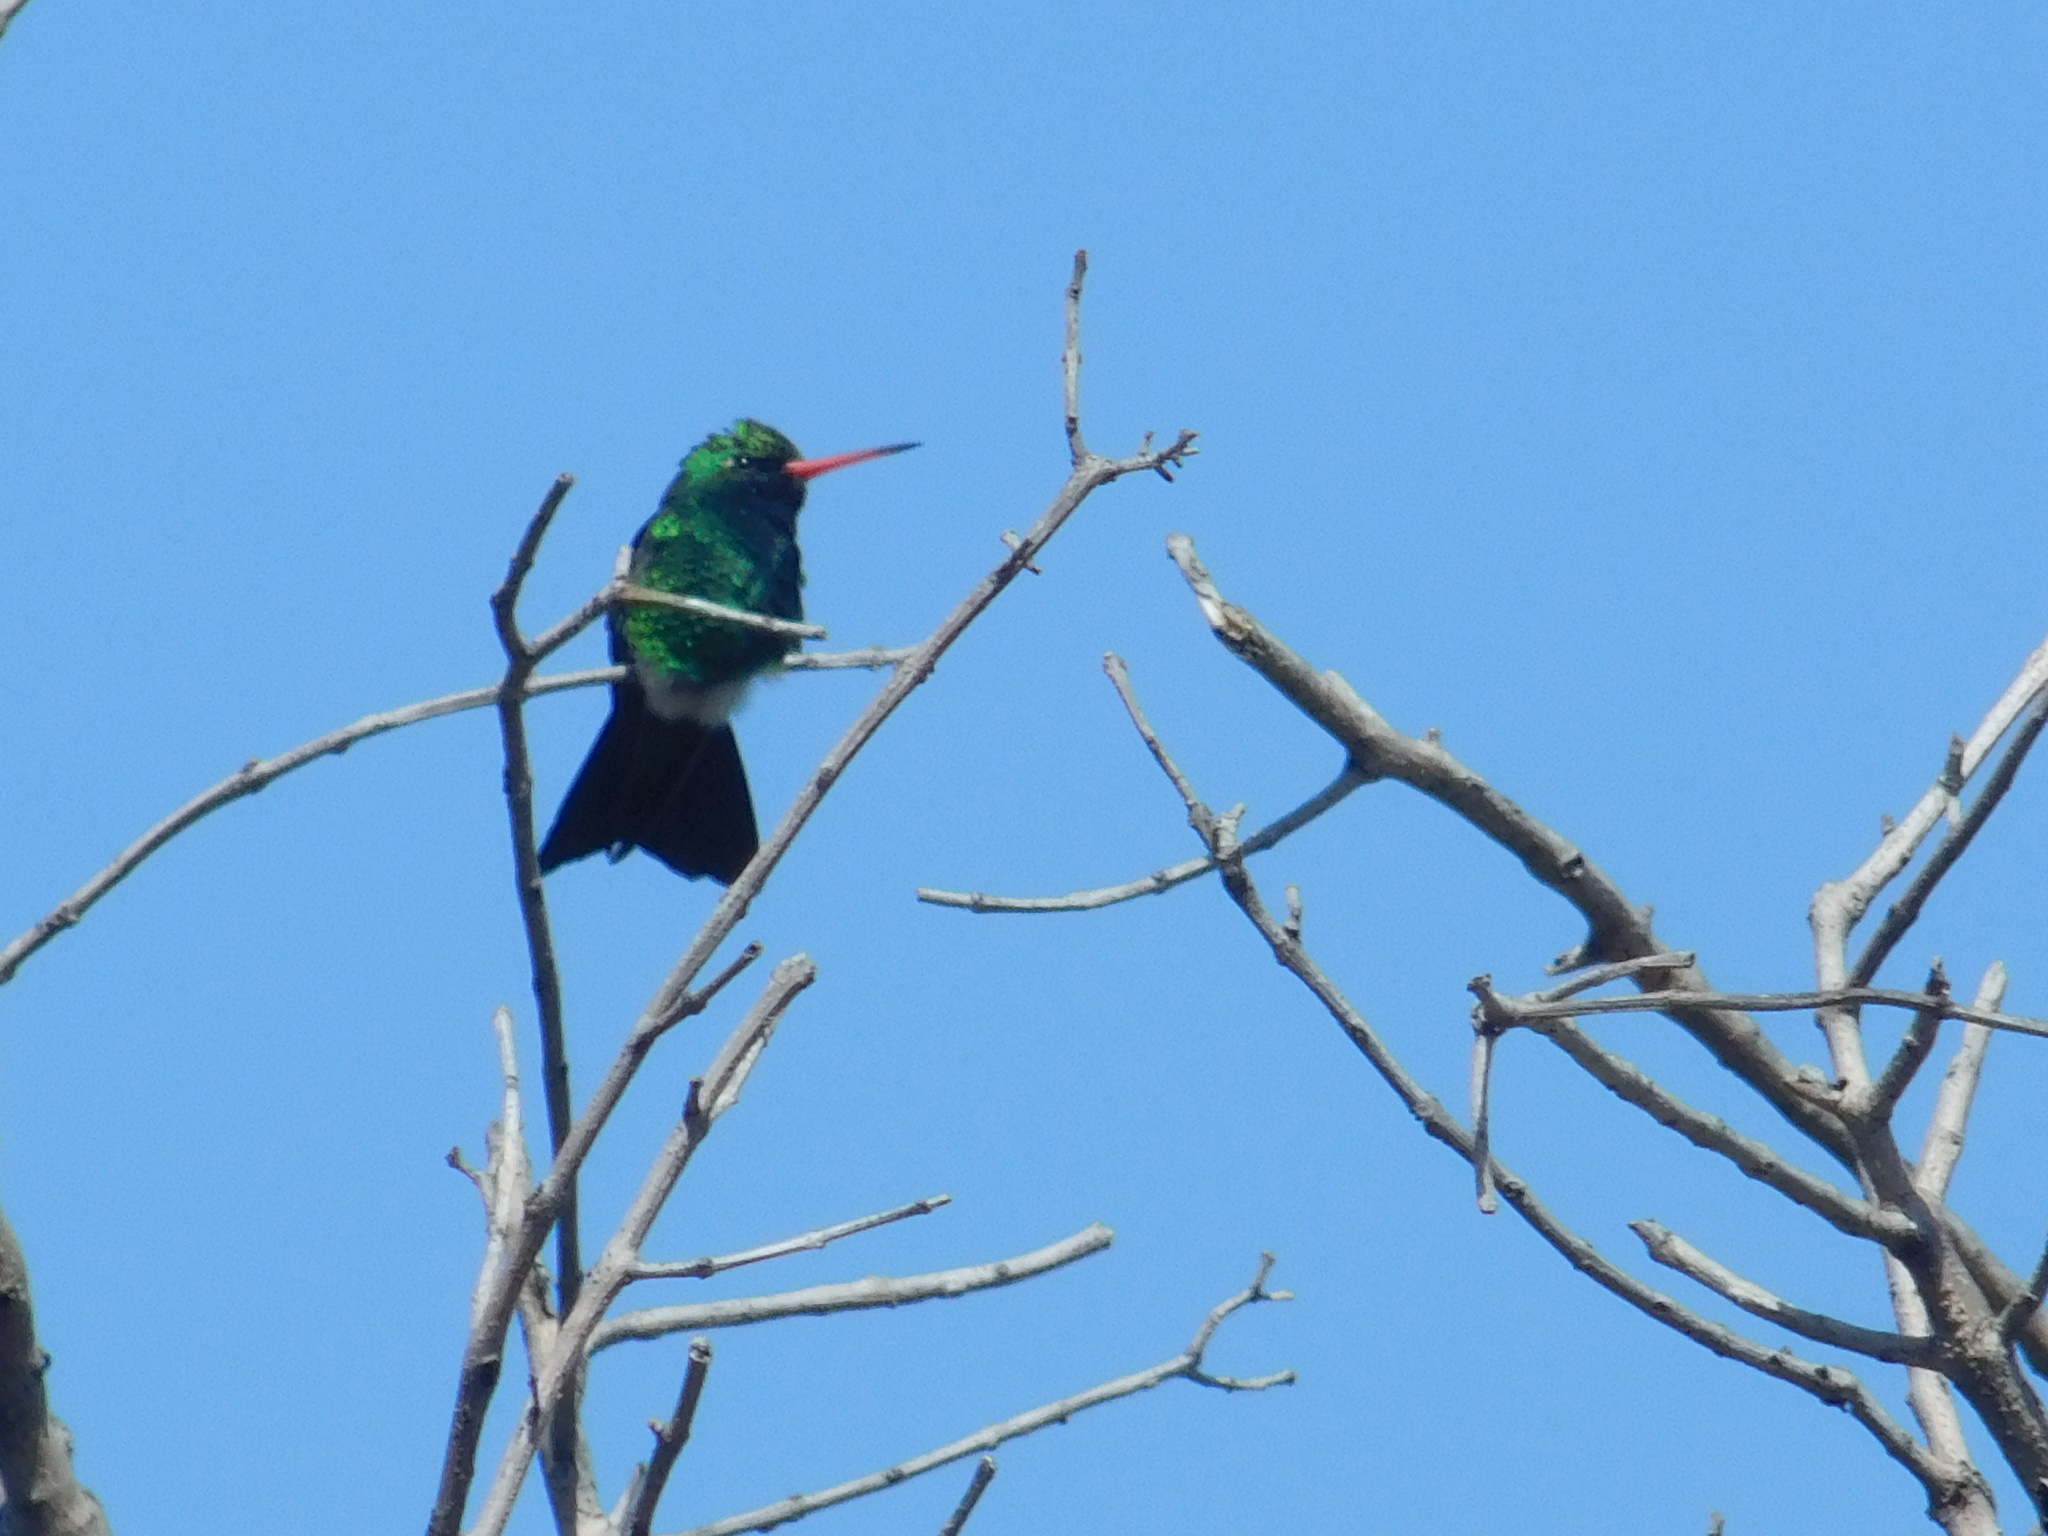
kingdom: Animalia
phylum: Chordata
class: Aves
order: Apodiformes
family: Trochilidae
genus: Chlorostilbon
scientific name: Chlorostilbon lucidus
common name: Glittering-bellied emerald
